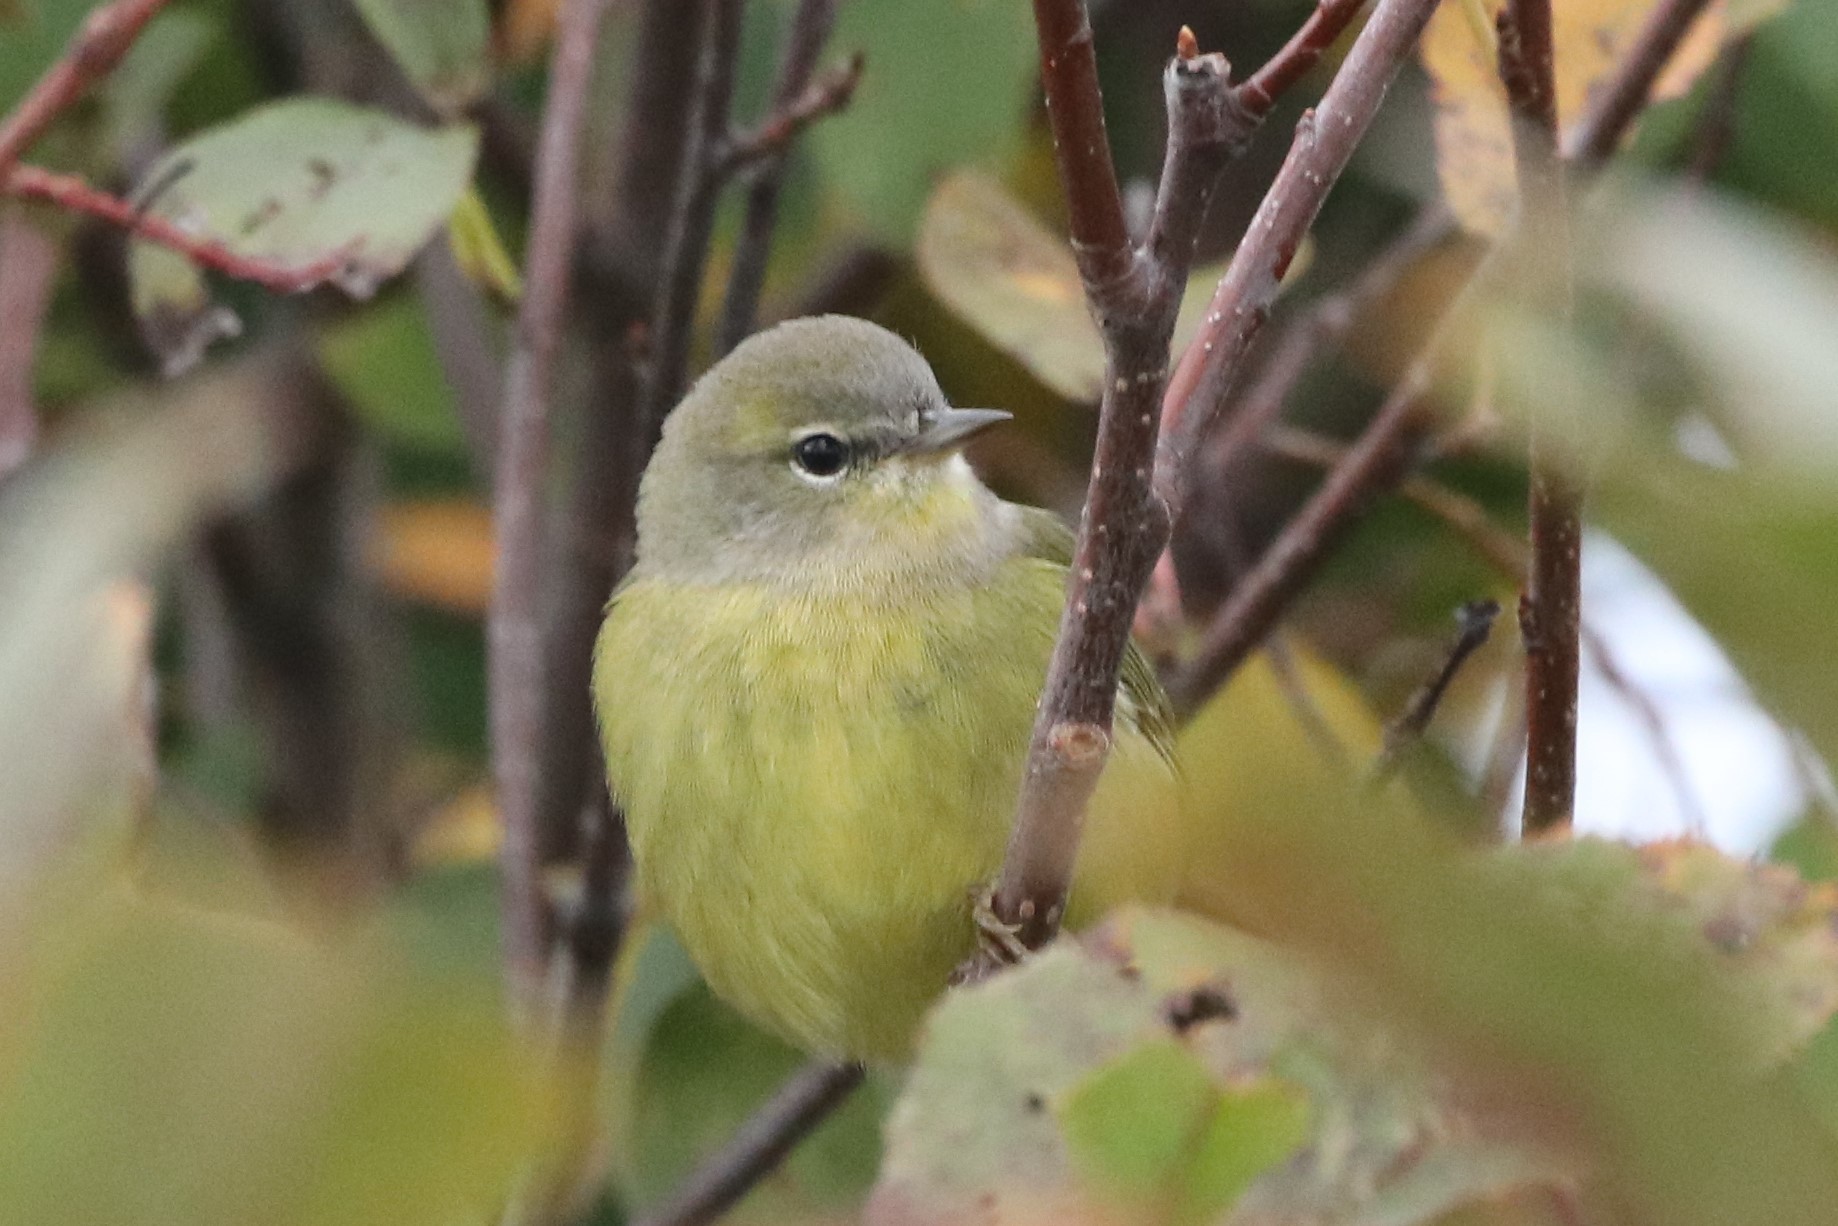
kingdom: Animalia
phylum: Chordata
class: Aves
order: Passeriformes
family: Parulidae
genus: Leiothlypis
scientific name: Leiothlypis celata
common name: Orange-crowned warbler
